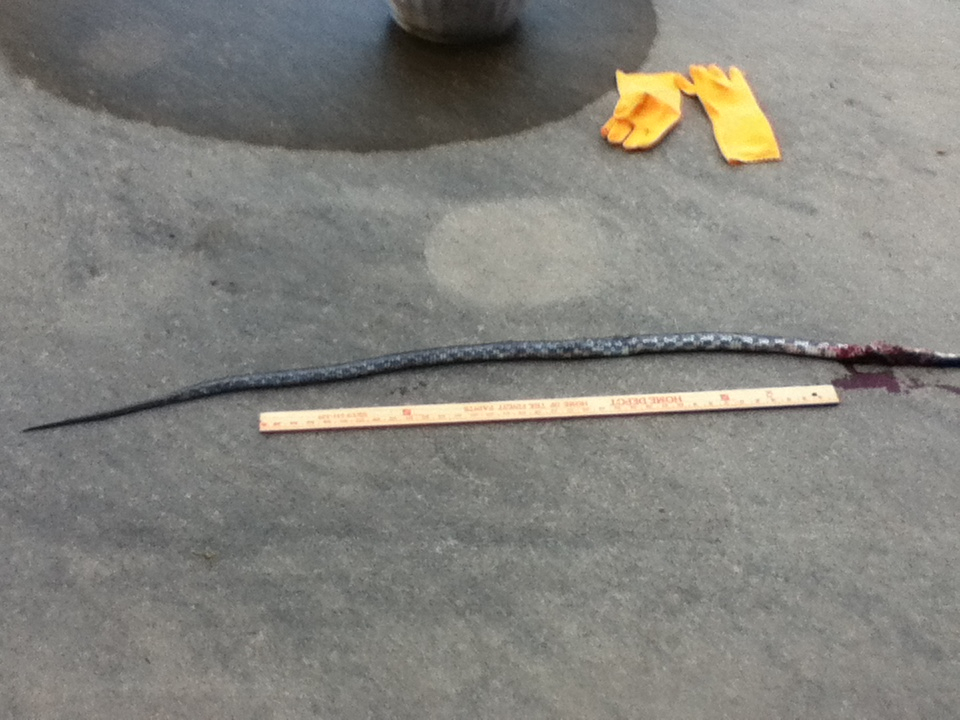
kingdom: Animalia
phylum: Chordata
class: Squamata
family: Colubridae
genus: Pantherophis
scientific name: Pantherophis spiloides
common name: Gray rat snake
